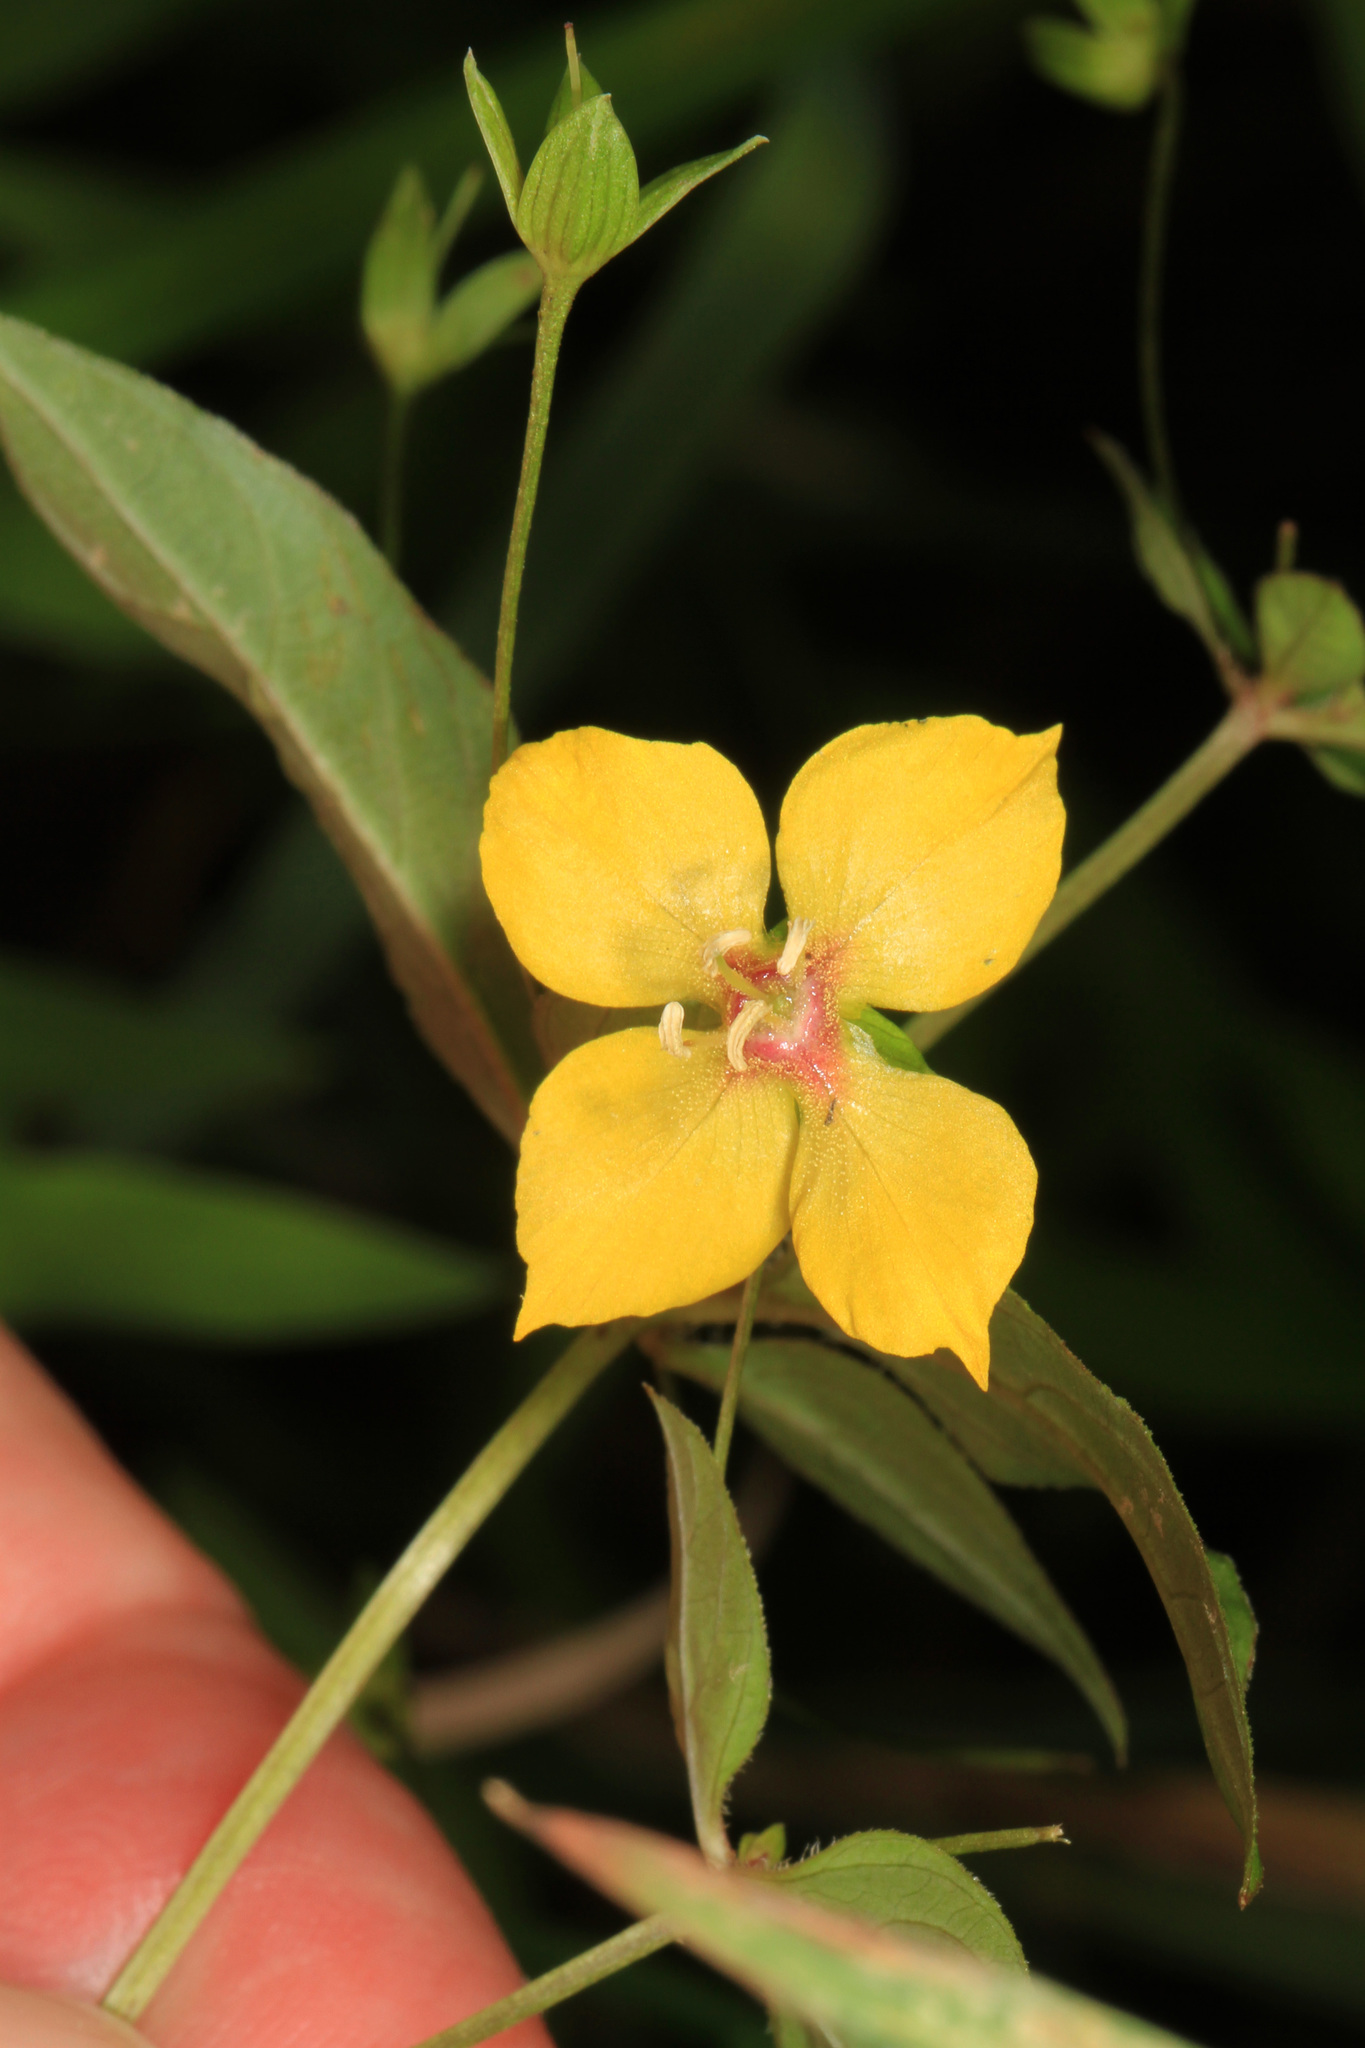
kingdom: Plantae
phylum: Tracheophyta
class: Magnoliopsida
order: Myrtales
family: Onagraceae
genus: Ludwigia
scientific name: Ludwigia alternifolia
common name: Rattlebox
